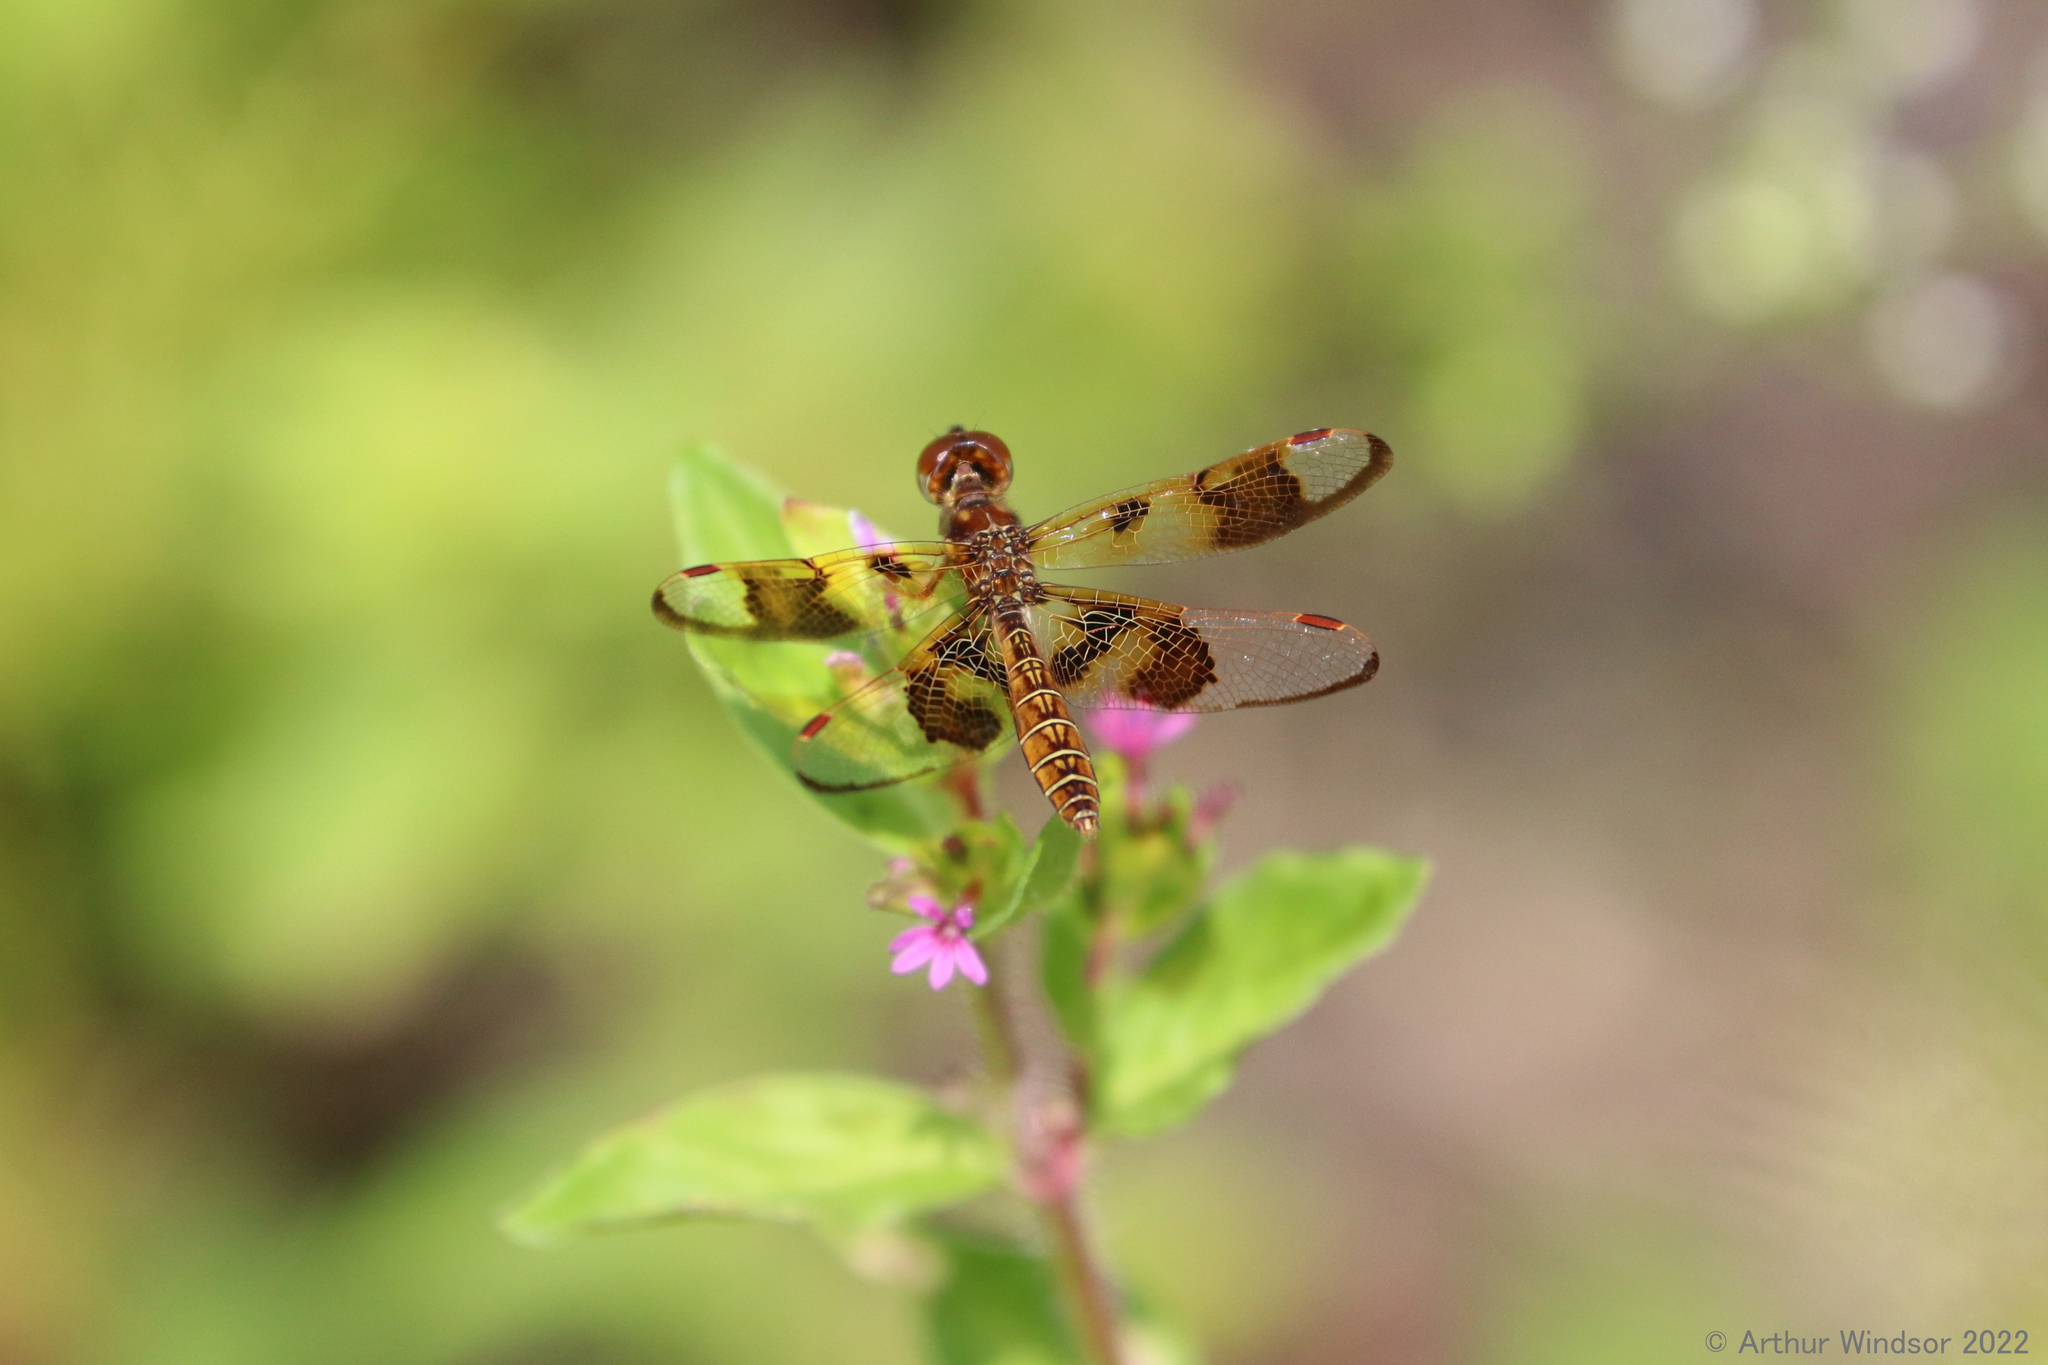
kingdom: Animalia
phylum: Arthropoda
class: Insecta
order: Odonata
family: Libellulidae
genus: Perithemis
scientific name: Perithemis tenera
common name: Eastern amberwing
